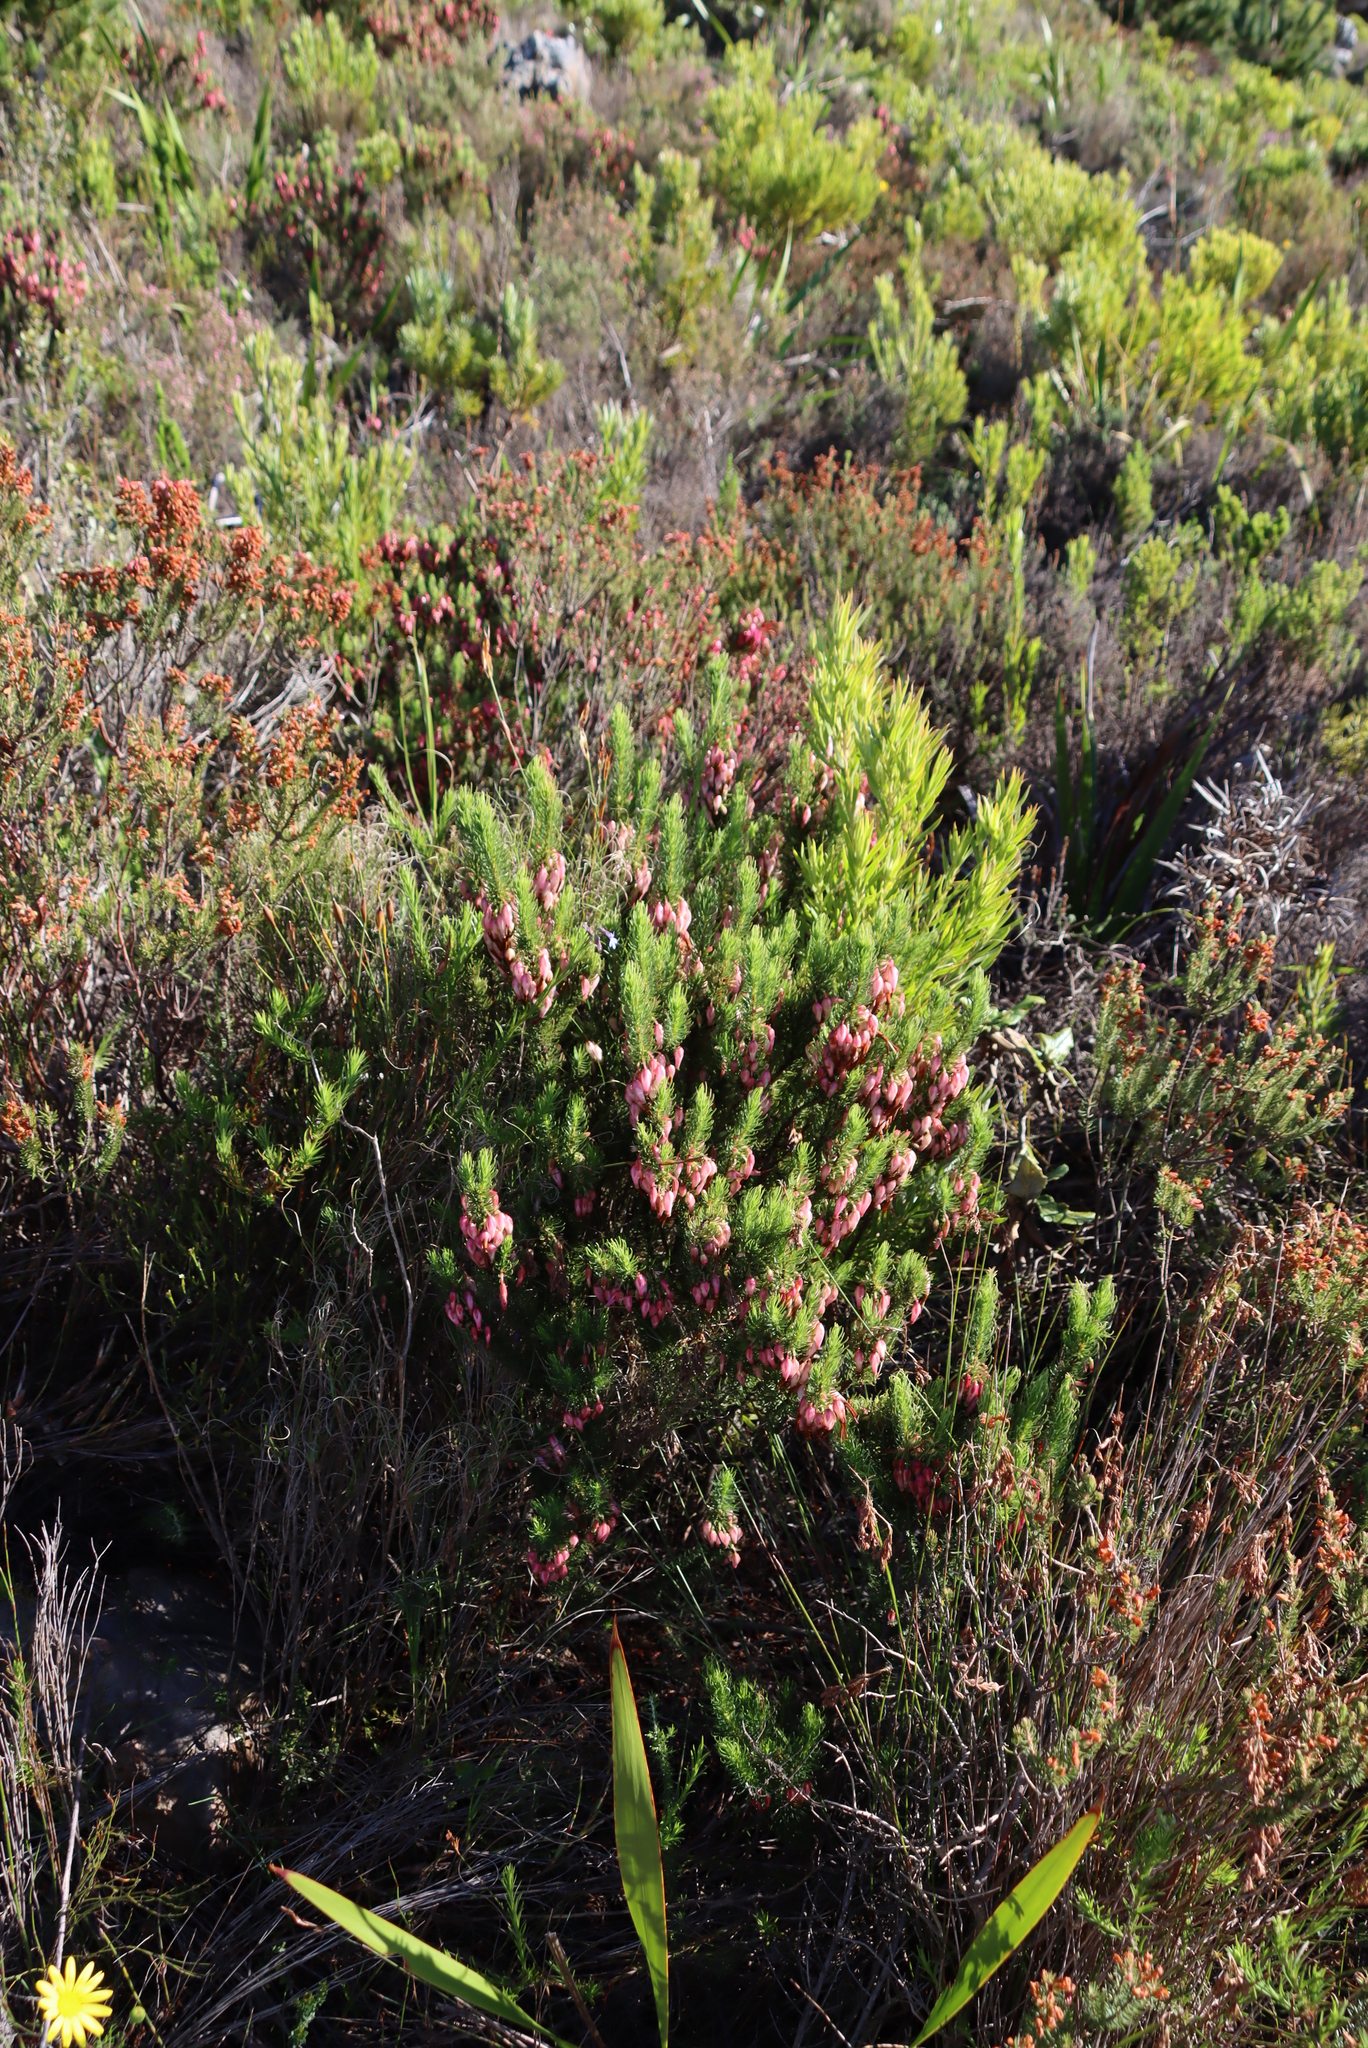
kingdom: Plantae
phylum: Tracheophyta
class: Magnoliopsida
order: Ericales
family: Ericaceae
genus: Erica
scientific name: Erica plukenetii
